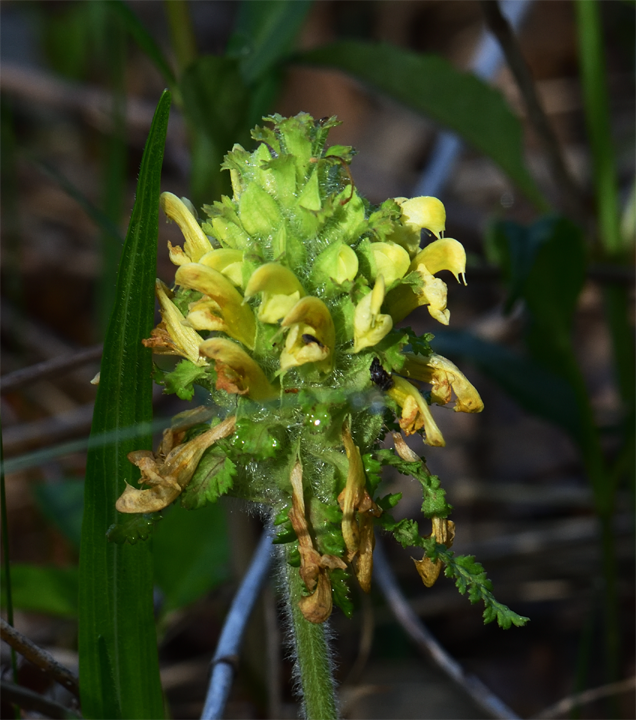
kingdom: Plantae
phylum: Tracheophyta
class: Magnoliopsida
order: Lamiales
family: Orobanchaceae
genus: Pedicularis
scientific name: Pedicularis canadensis
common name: Early lousewort
